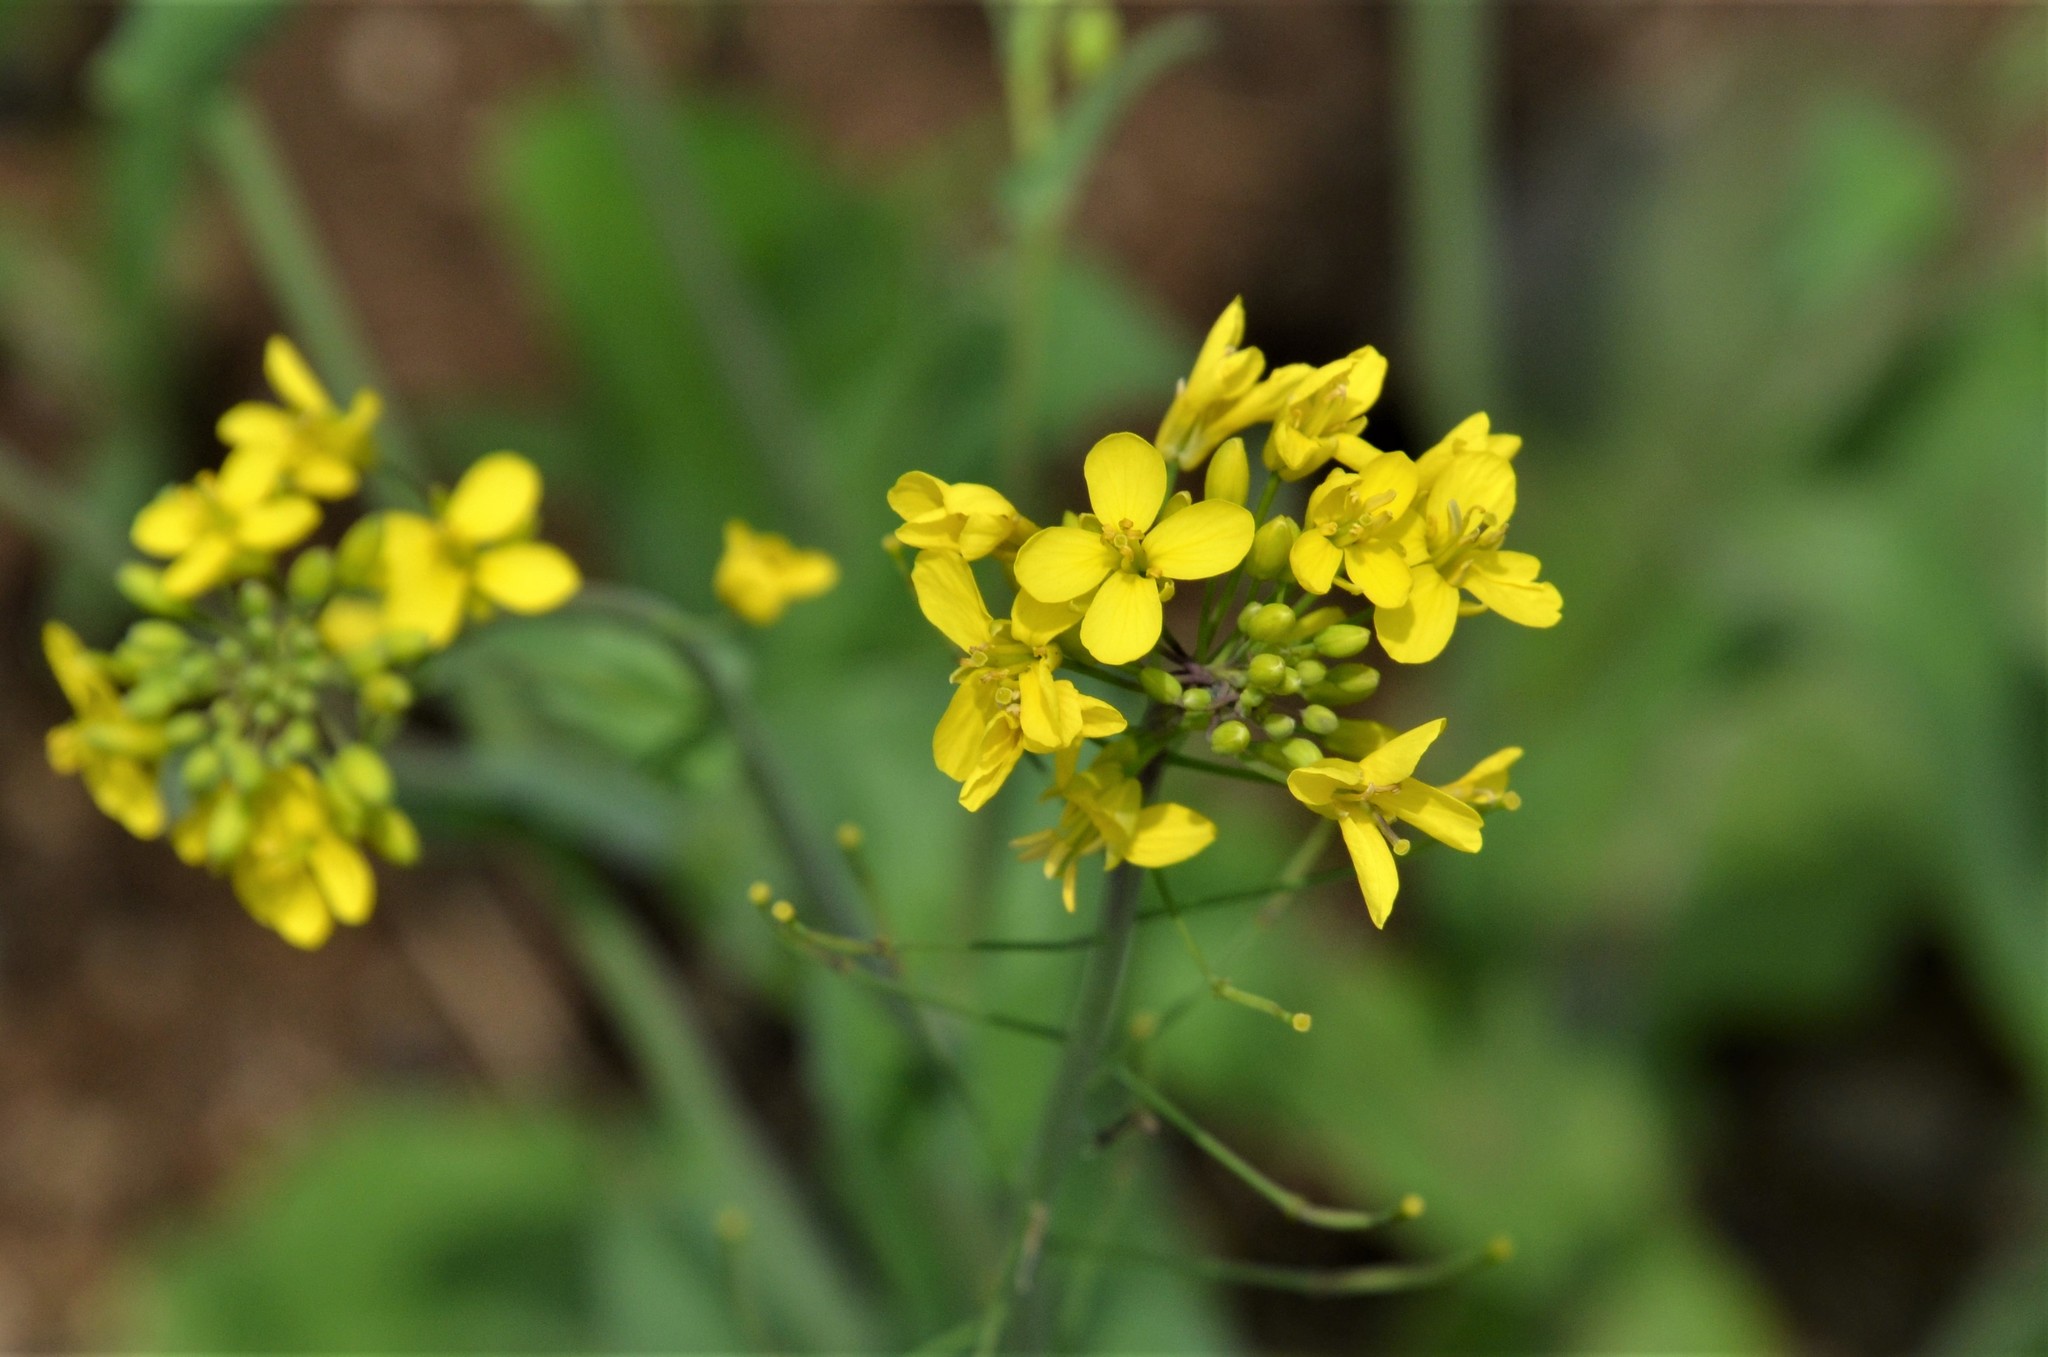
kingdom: Plantae
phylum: Tracheophyta
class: Magnoliopsida
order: Brassicales
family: Brassicaceae
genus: Brassica
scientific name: Brassica rapa
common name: Field mustard
